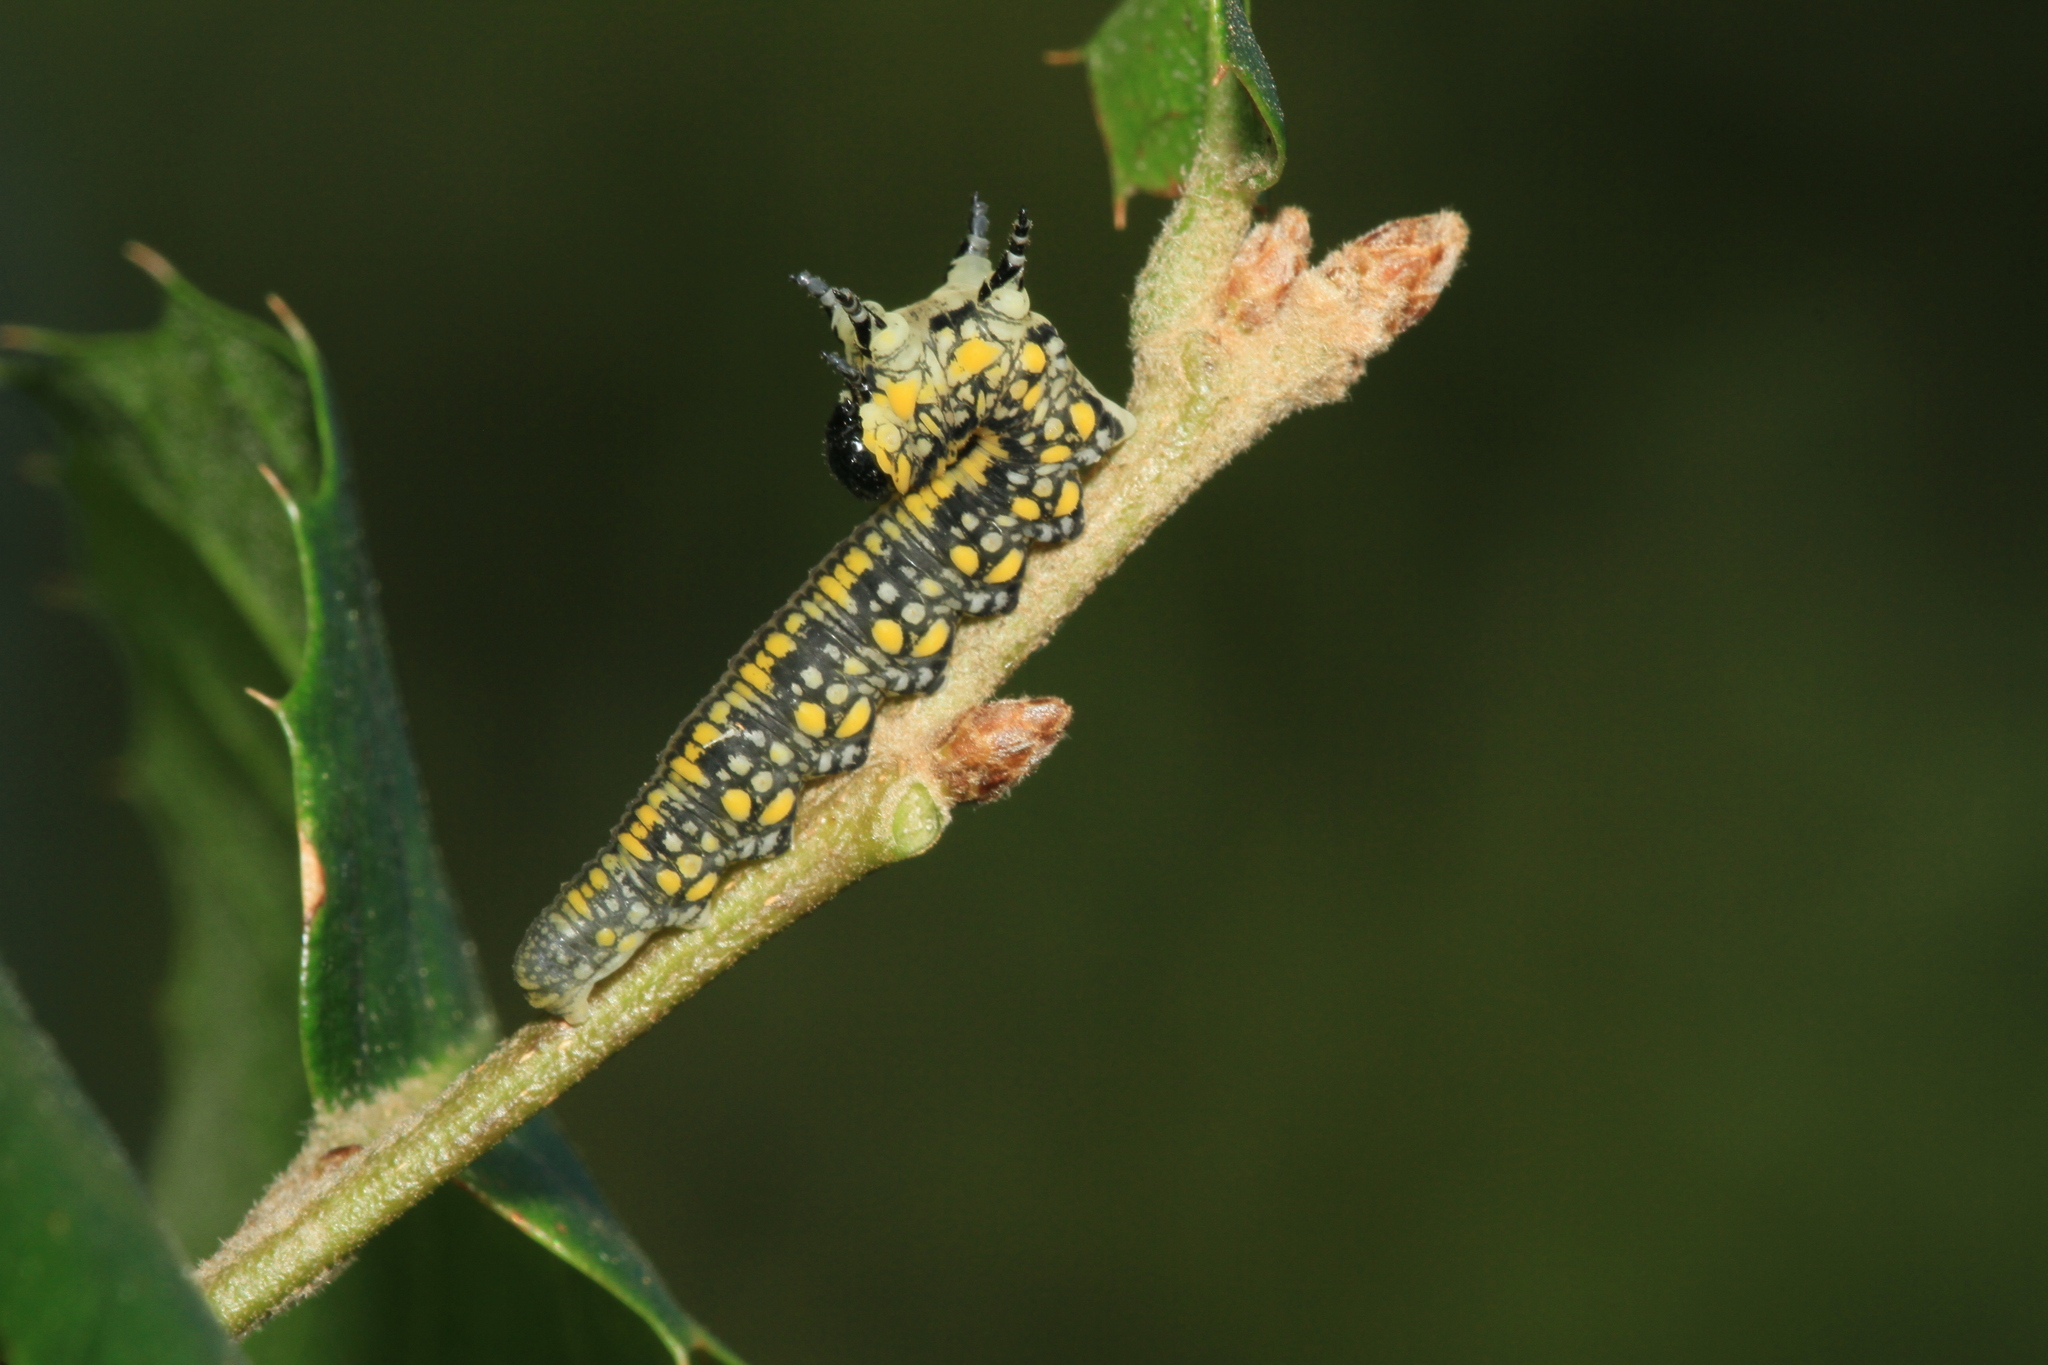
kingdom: Animalia
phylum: Arthropoda
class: Insecta
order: Hymenoptera
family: Diprionidae
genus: Diprion
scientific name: Diprion similis
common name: Pine sawfly
